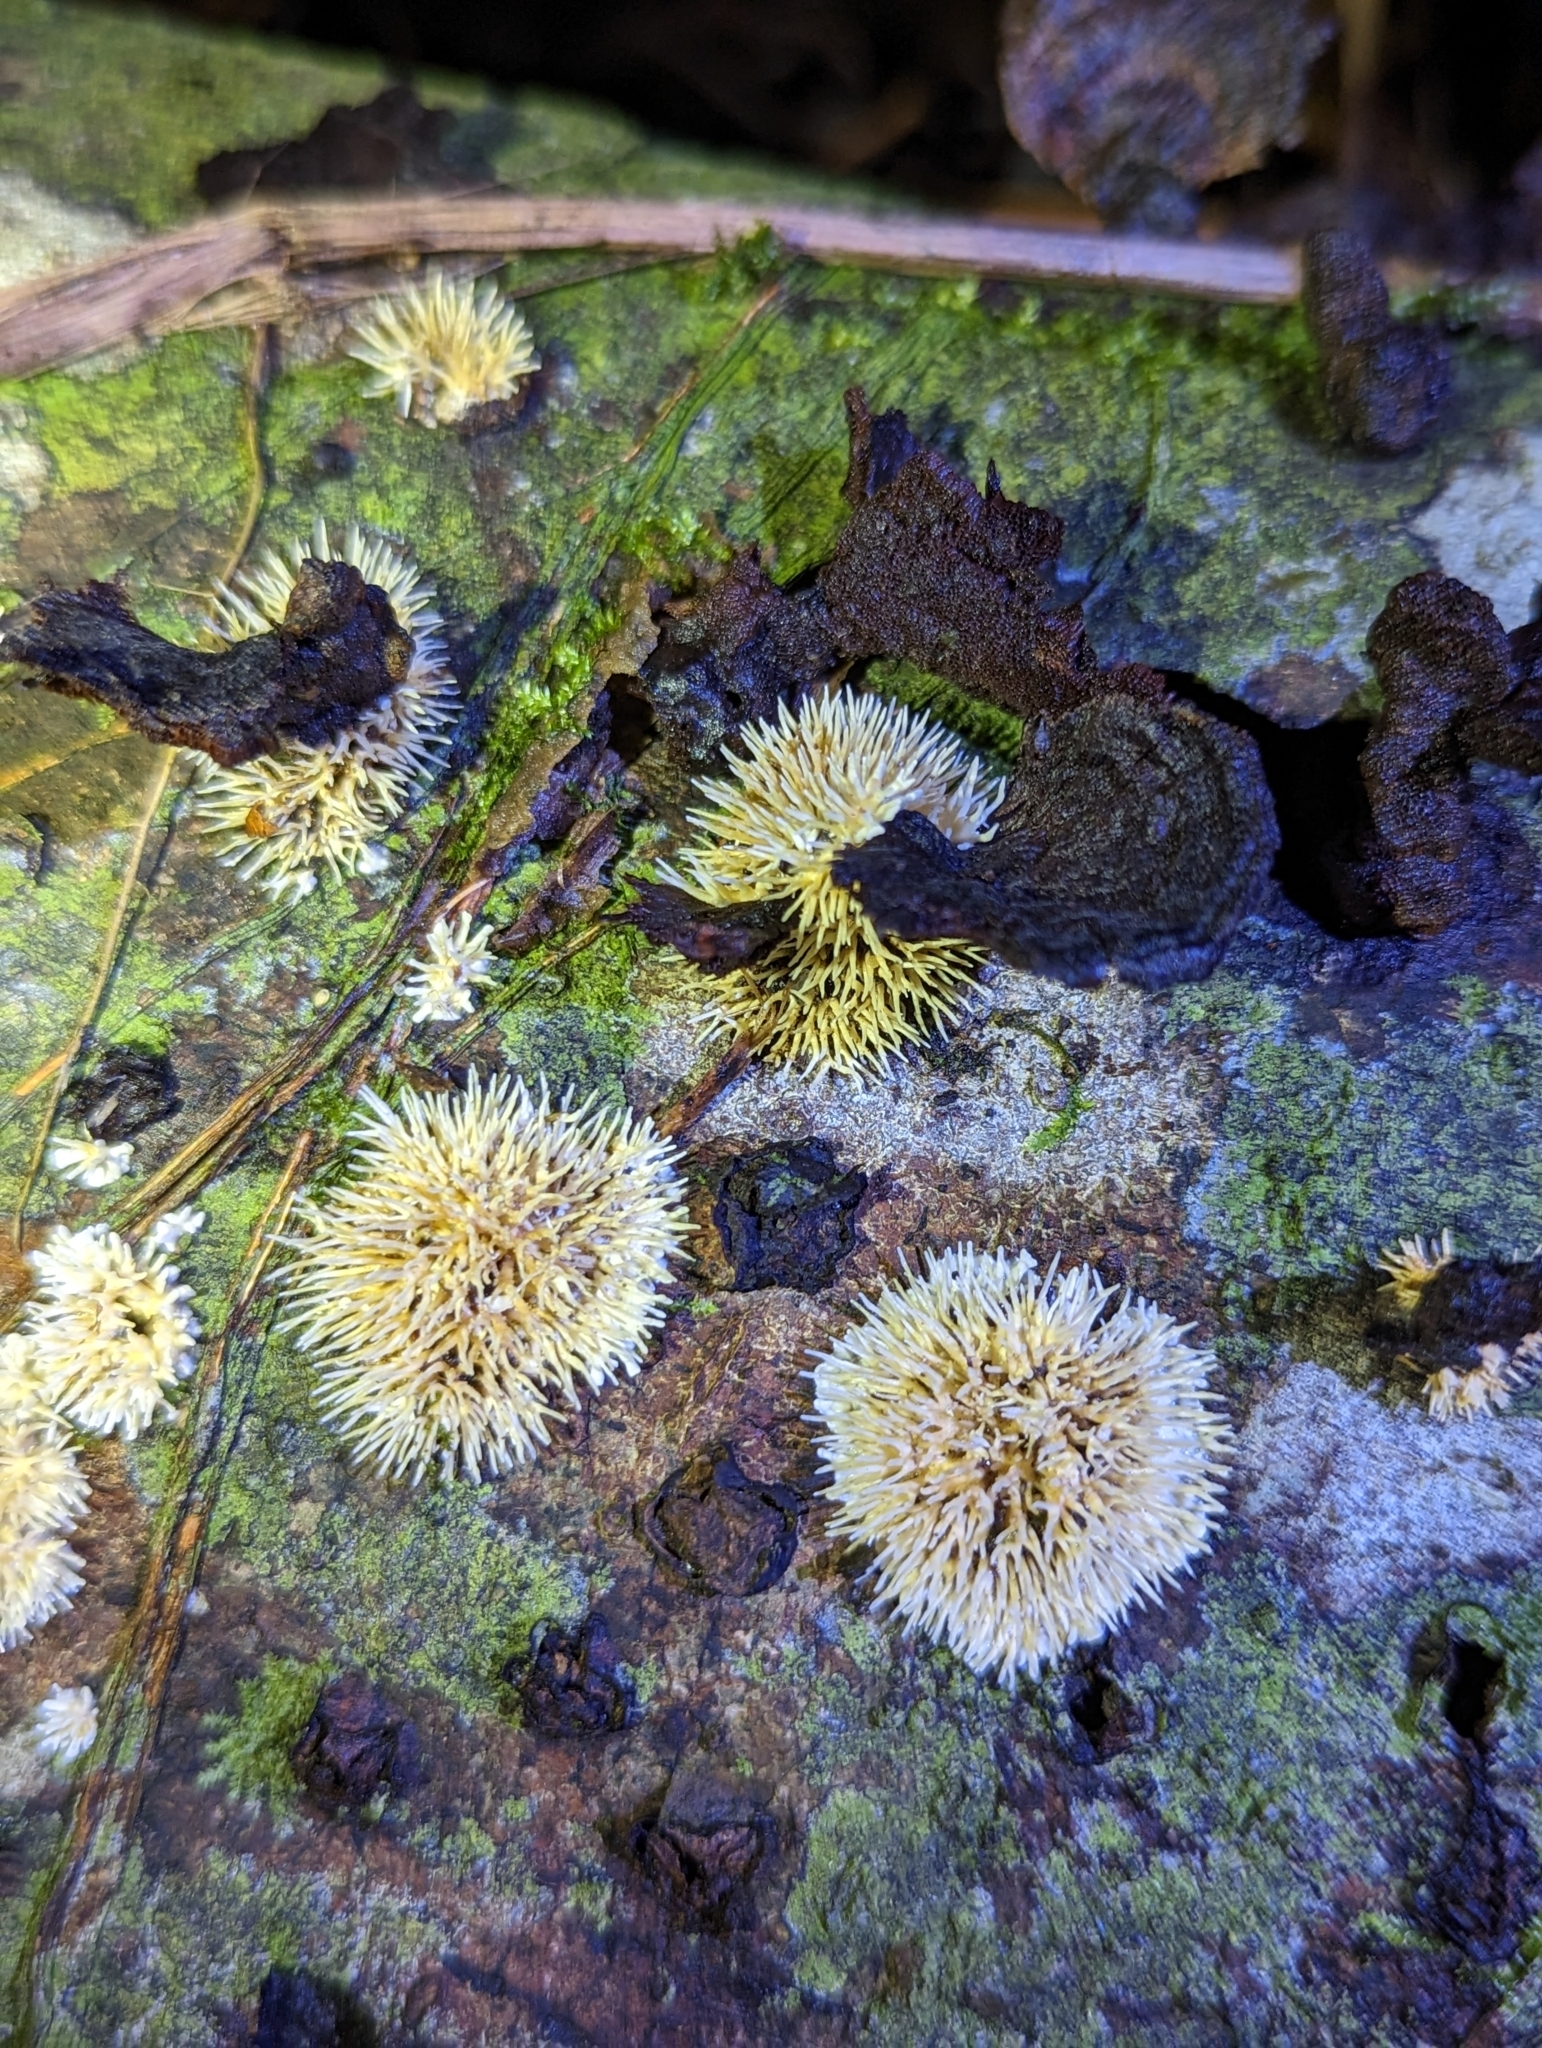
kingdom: Fungi
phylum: Basidiomycota
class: Agaricomycetes
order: Auriculariales
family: Auriculariaceae
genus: Elmerina
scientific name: Elmerina sclerodontia
